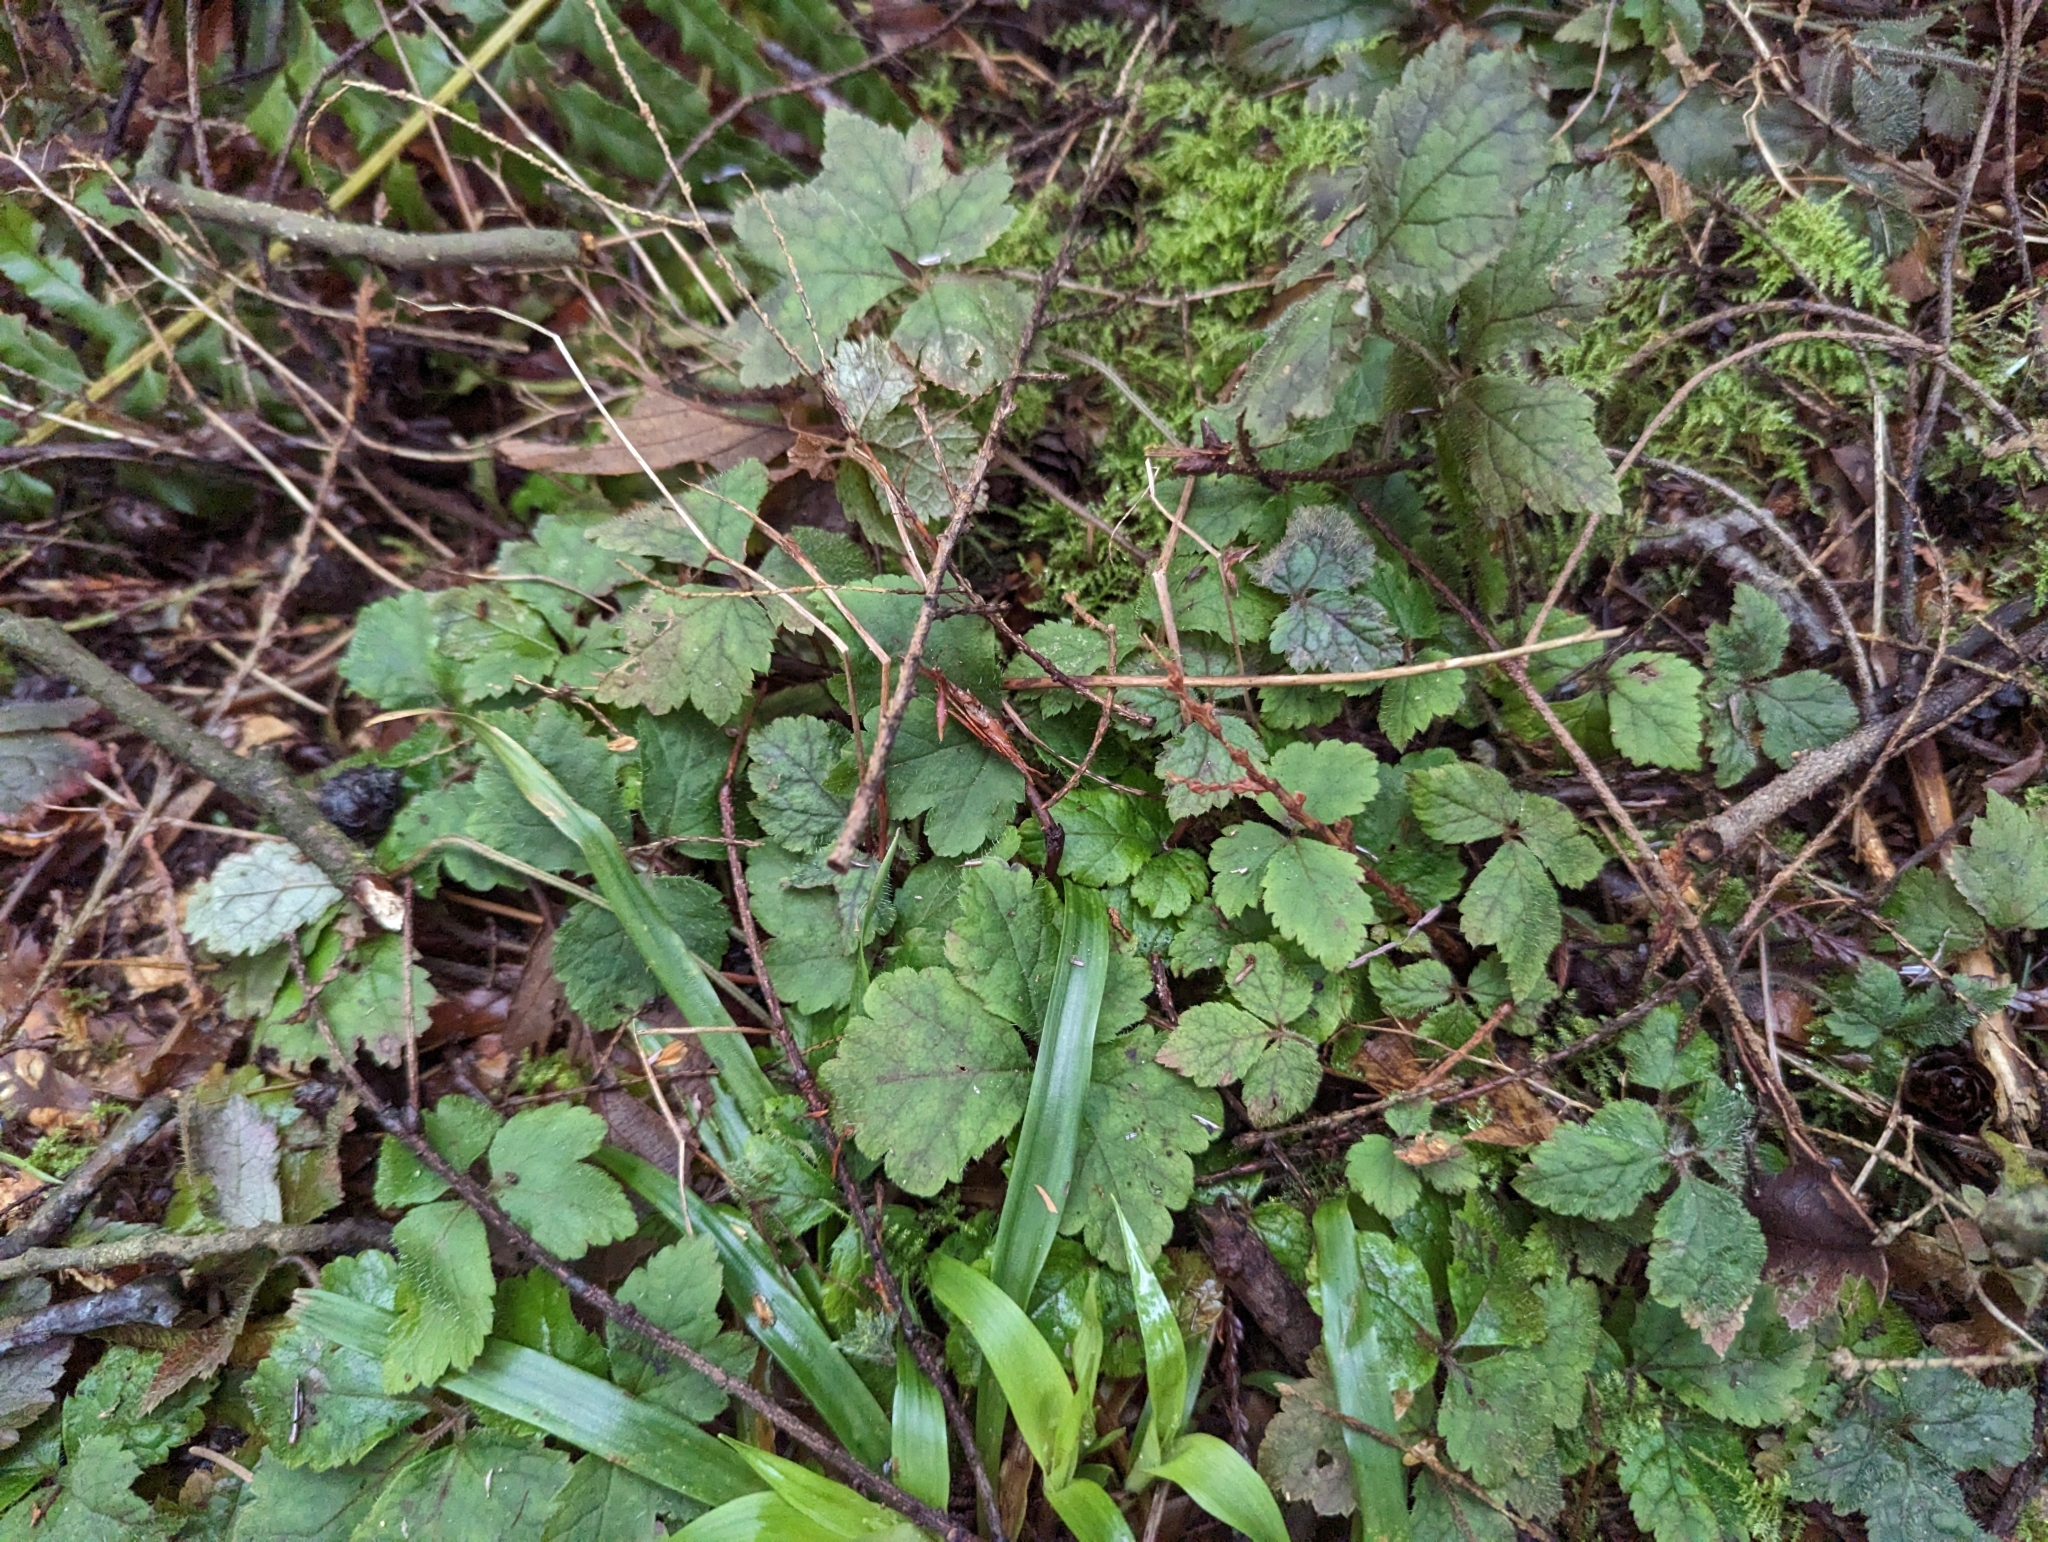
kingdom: Plantae
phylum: Tracheophyta
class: Magnoliopsida
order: Saxifragales
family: Saxifragaceae
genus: Tiarella
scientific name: Tiarella trifoliata
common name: Sugar-scoop
